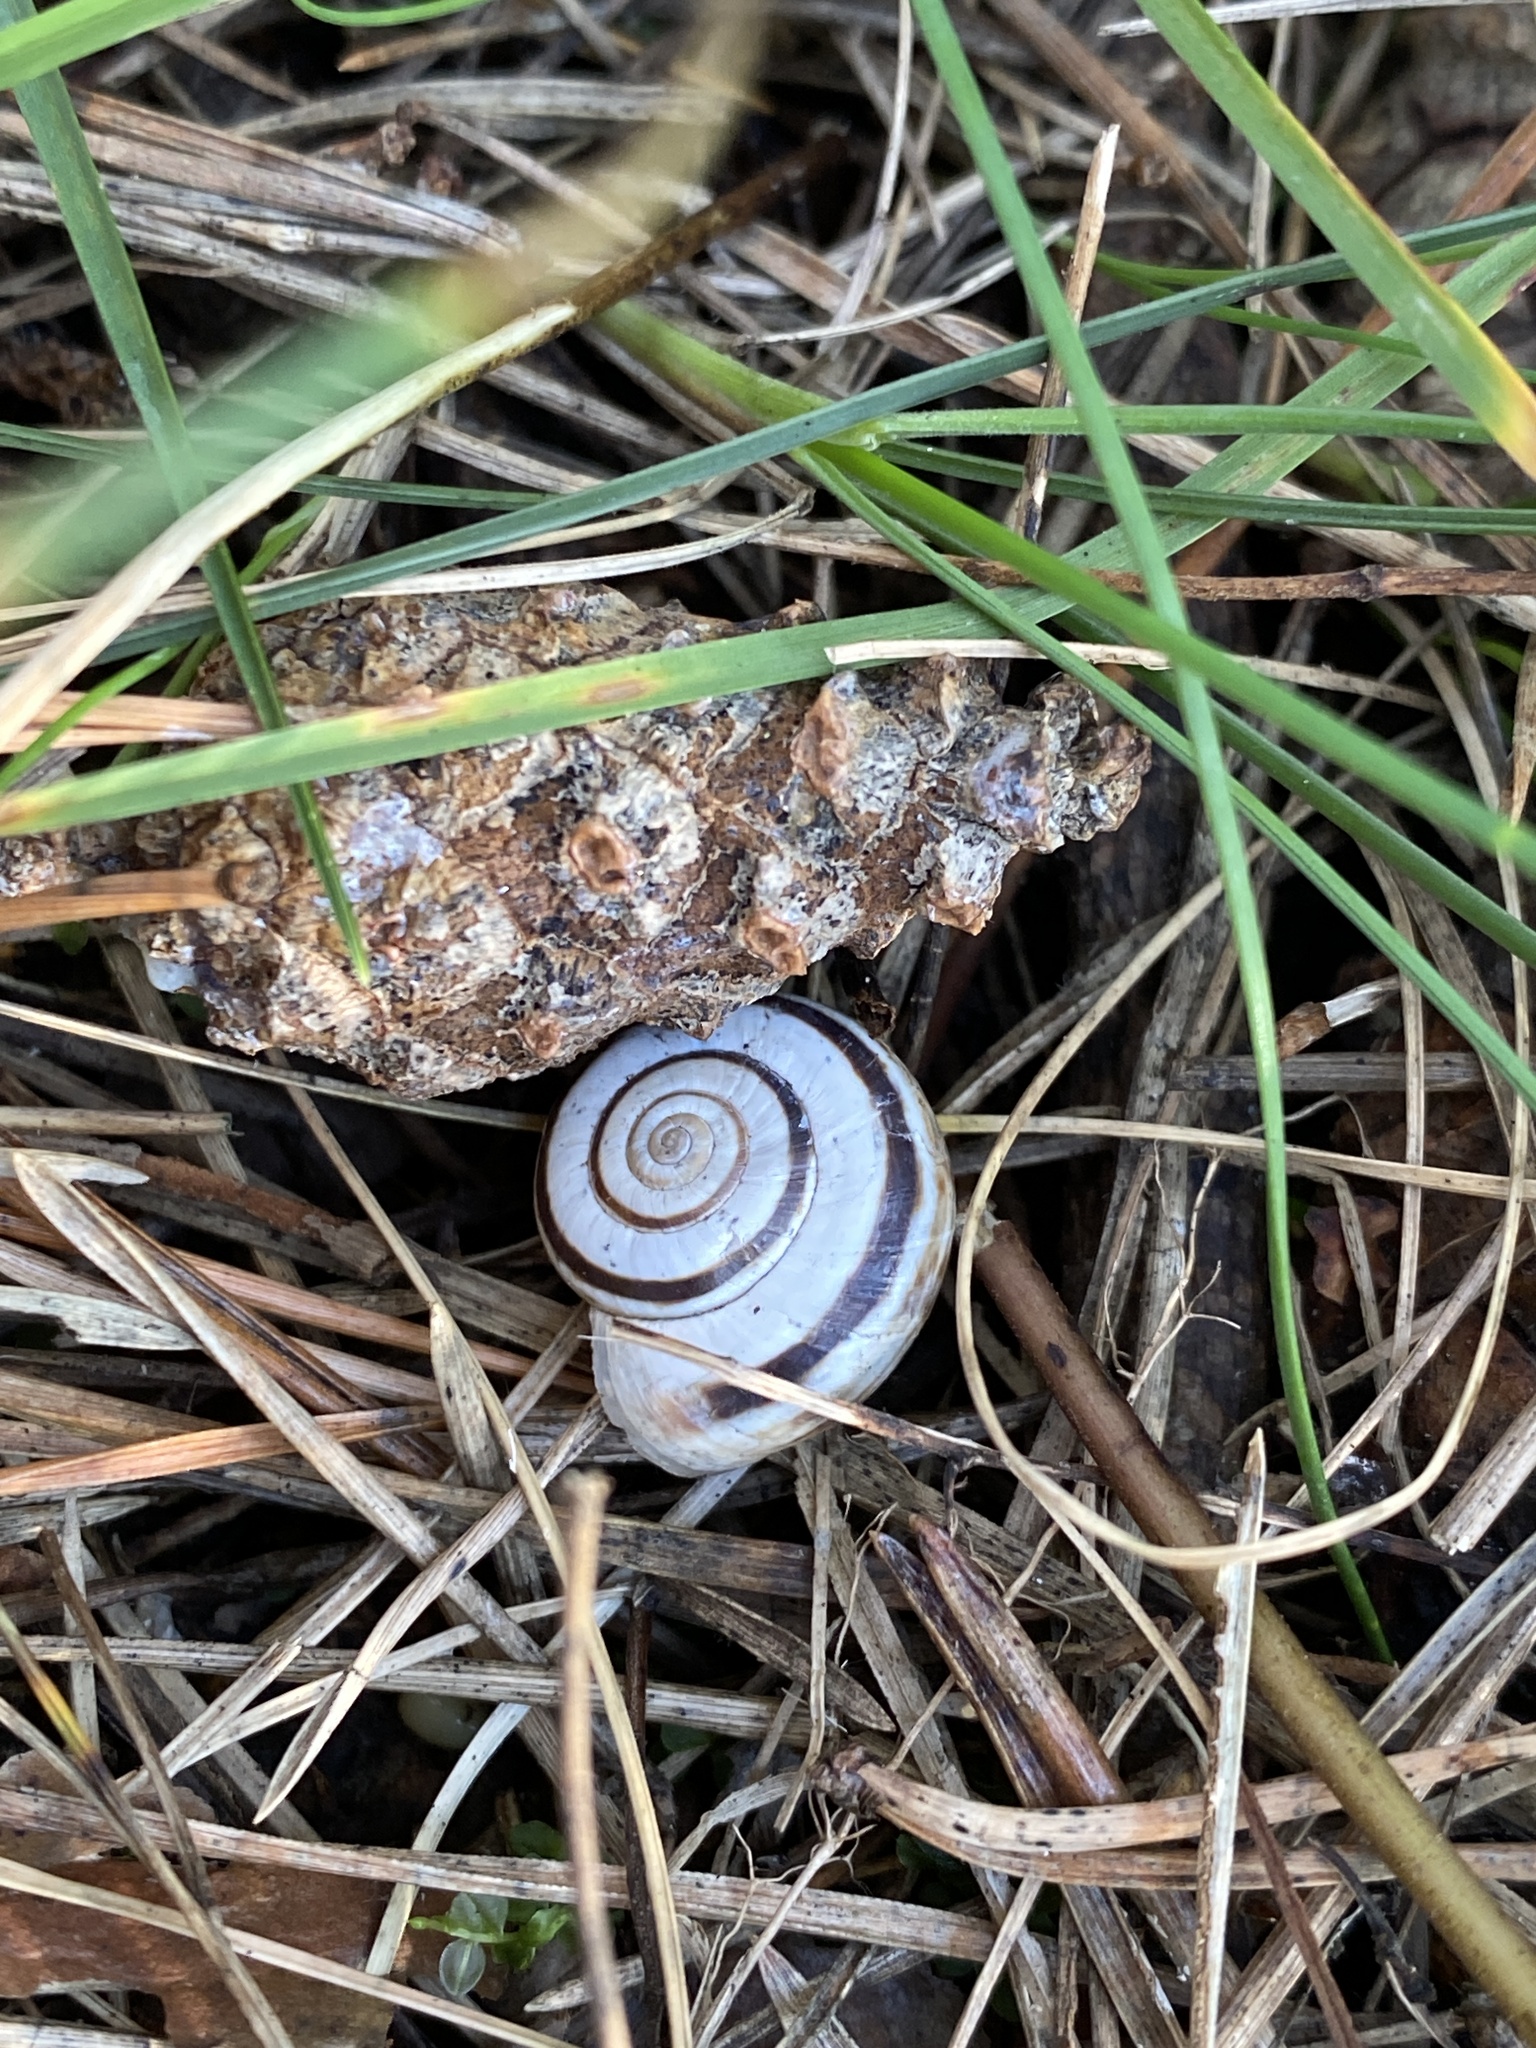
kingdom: Animalia
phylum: Mollusca
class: Gastropoda
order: Stylommatophora
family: Geomitridae
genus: Xerolenta
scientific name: Xerolenta obvia
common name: White heath snail
